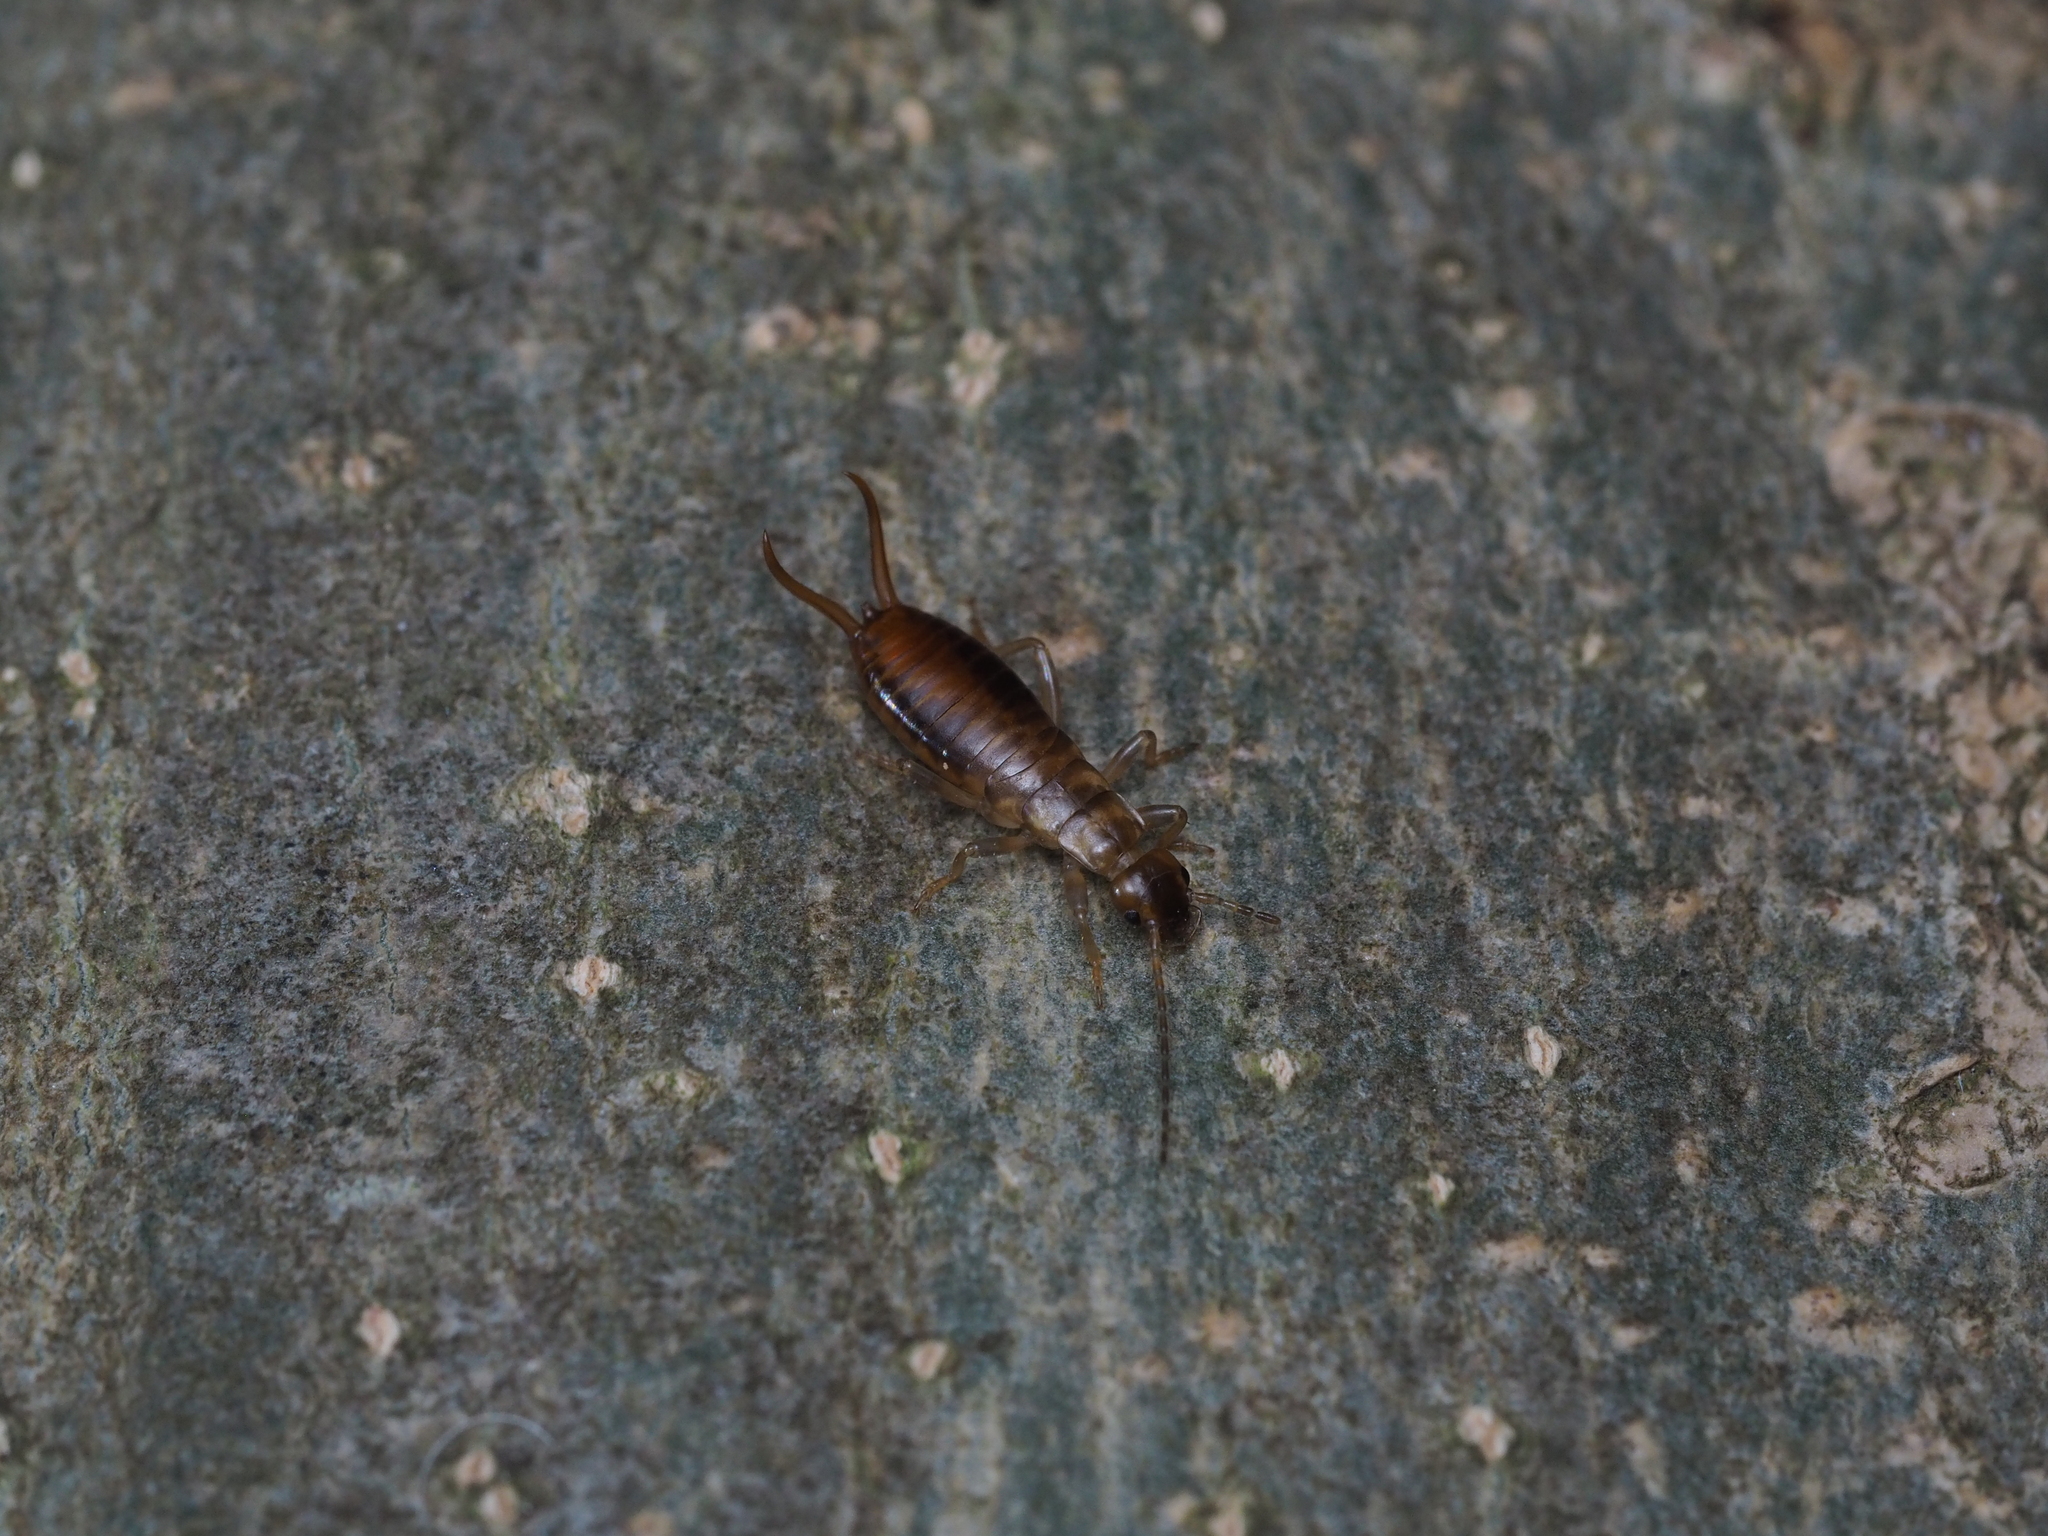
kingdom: Animalia
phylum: Arthropoda
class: Insecta
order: Dermaptera
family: Forficulidae
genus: Chelidurella
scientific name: Chelidurella acanthopygia
